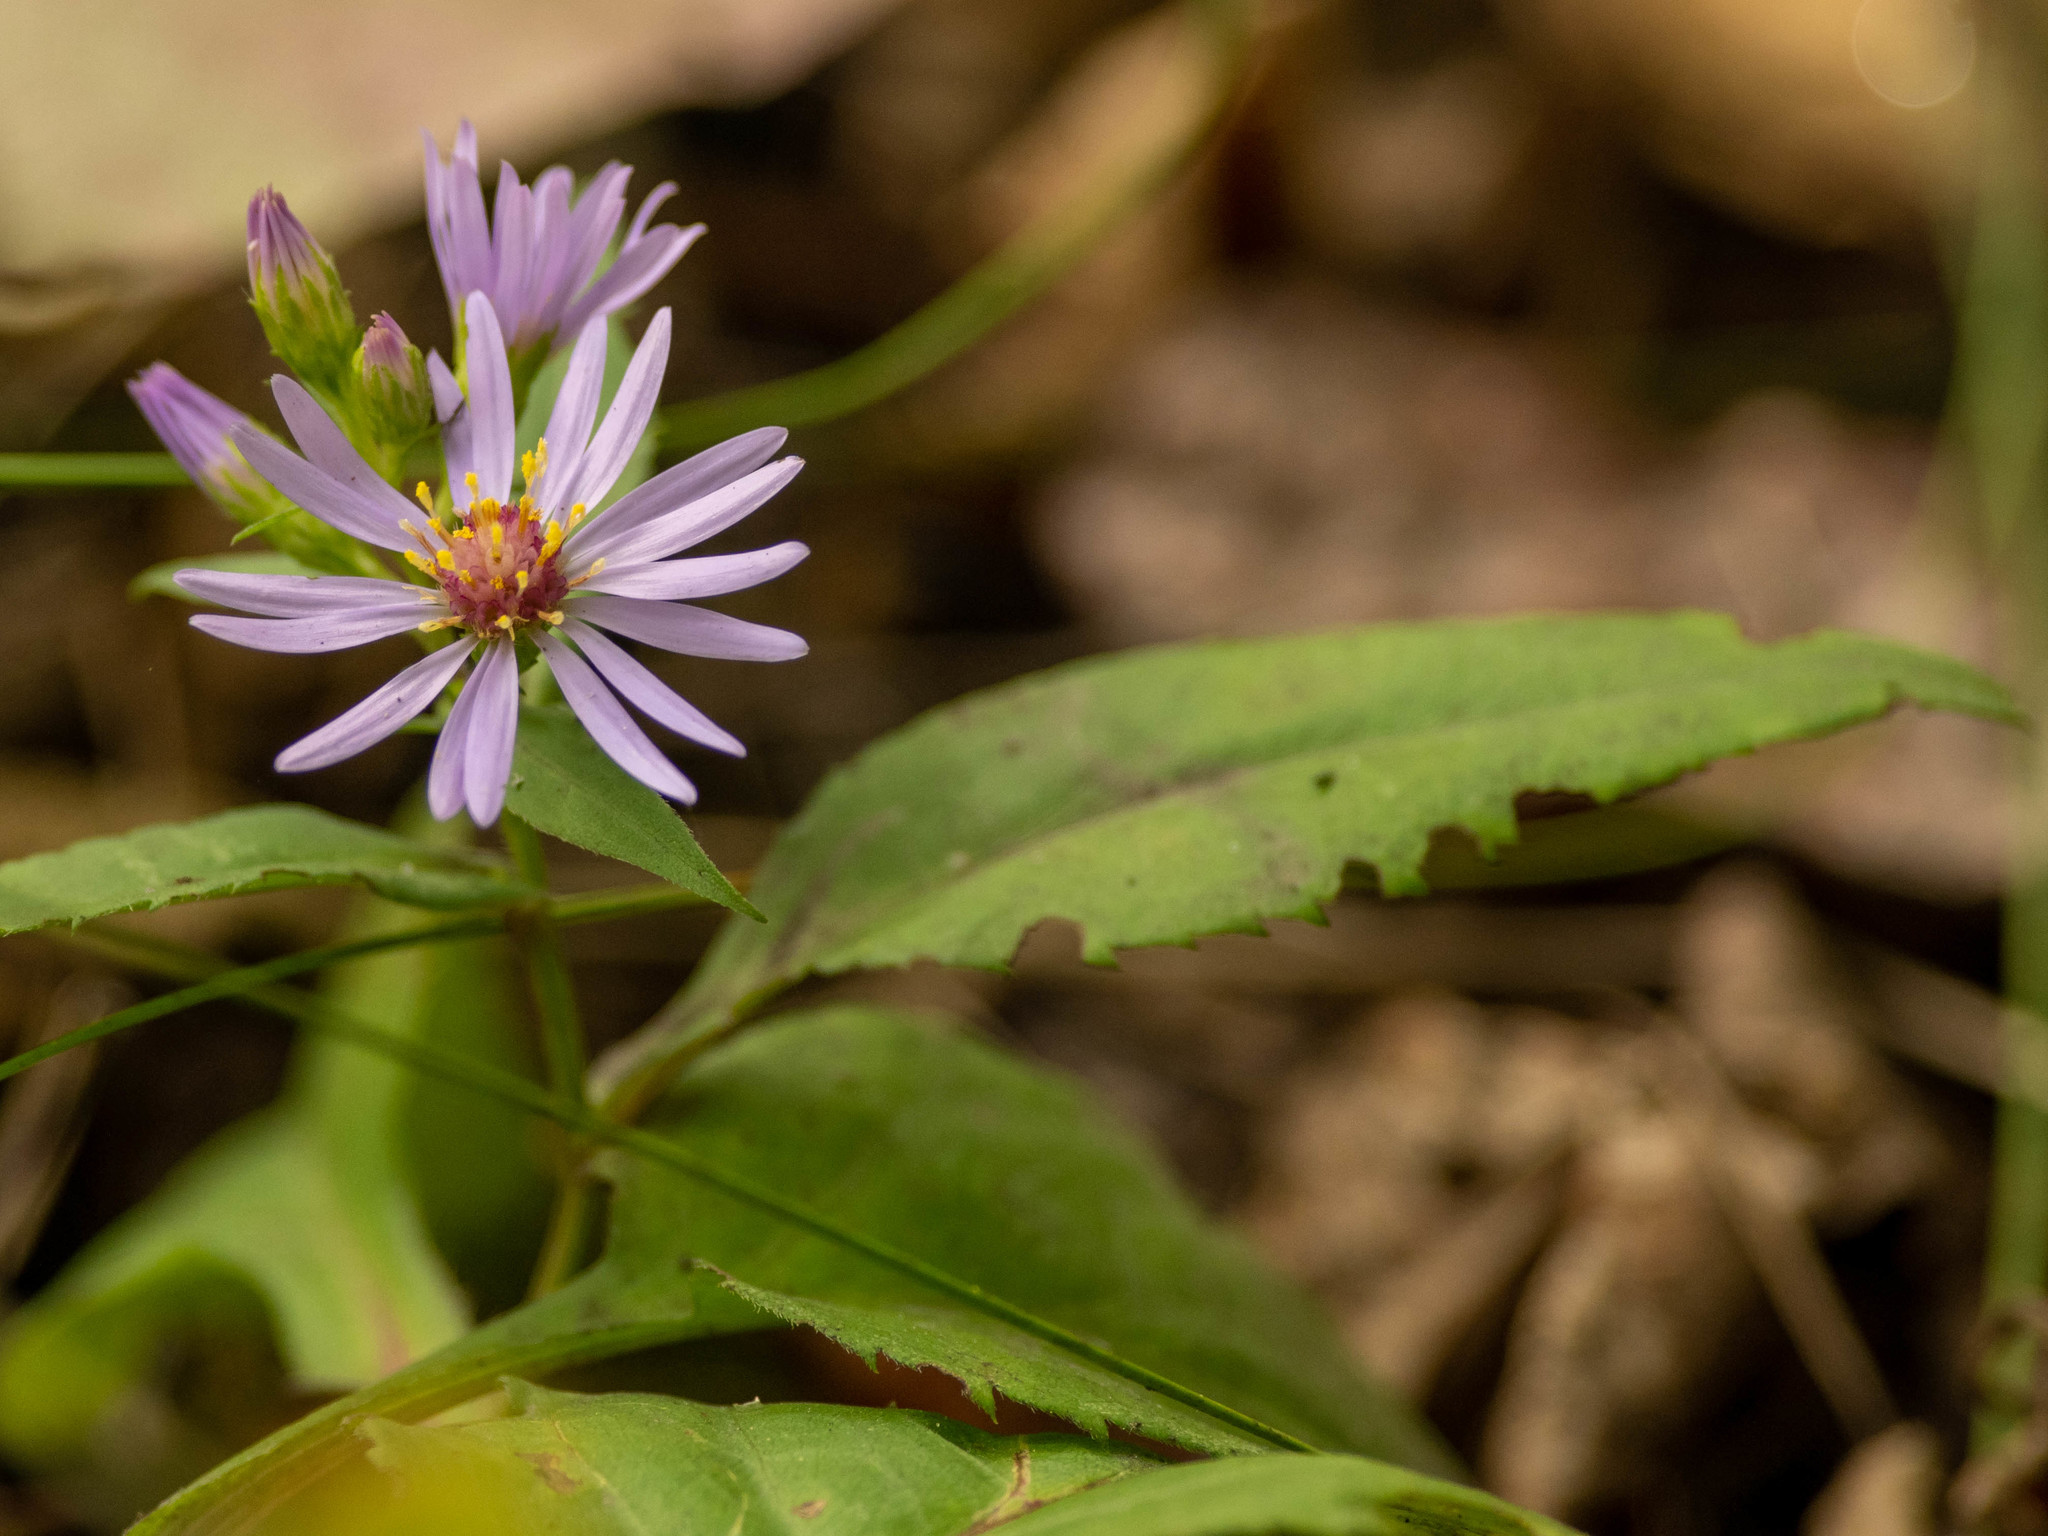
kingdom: Plantae
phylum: Tracheophyta
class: Magnoliopsida
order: Asterales
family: Asteraceae
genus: Eurybia
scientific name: Eurybia conspicua
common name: Showy aster
